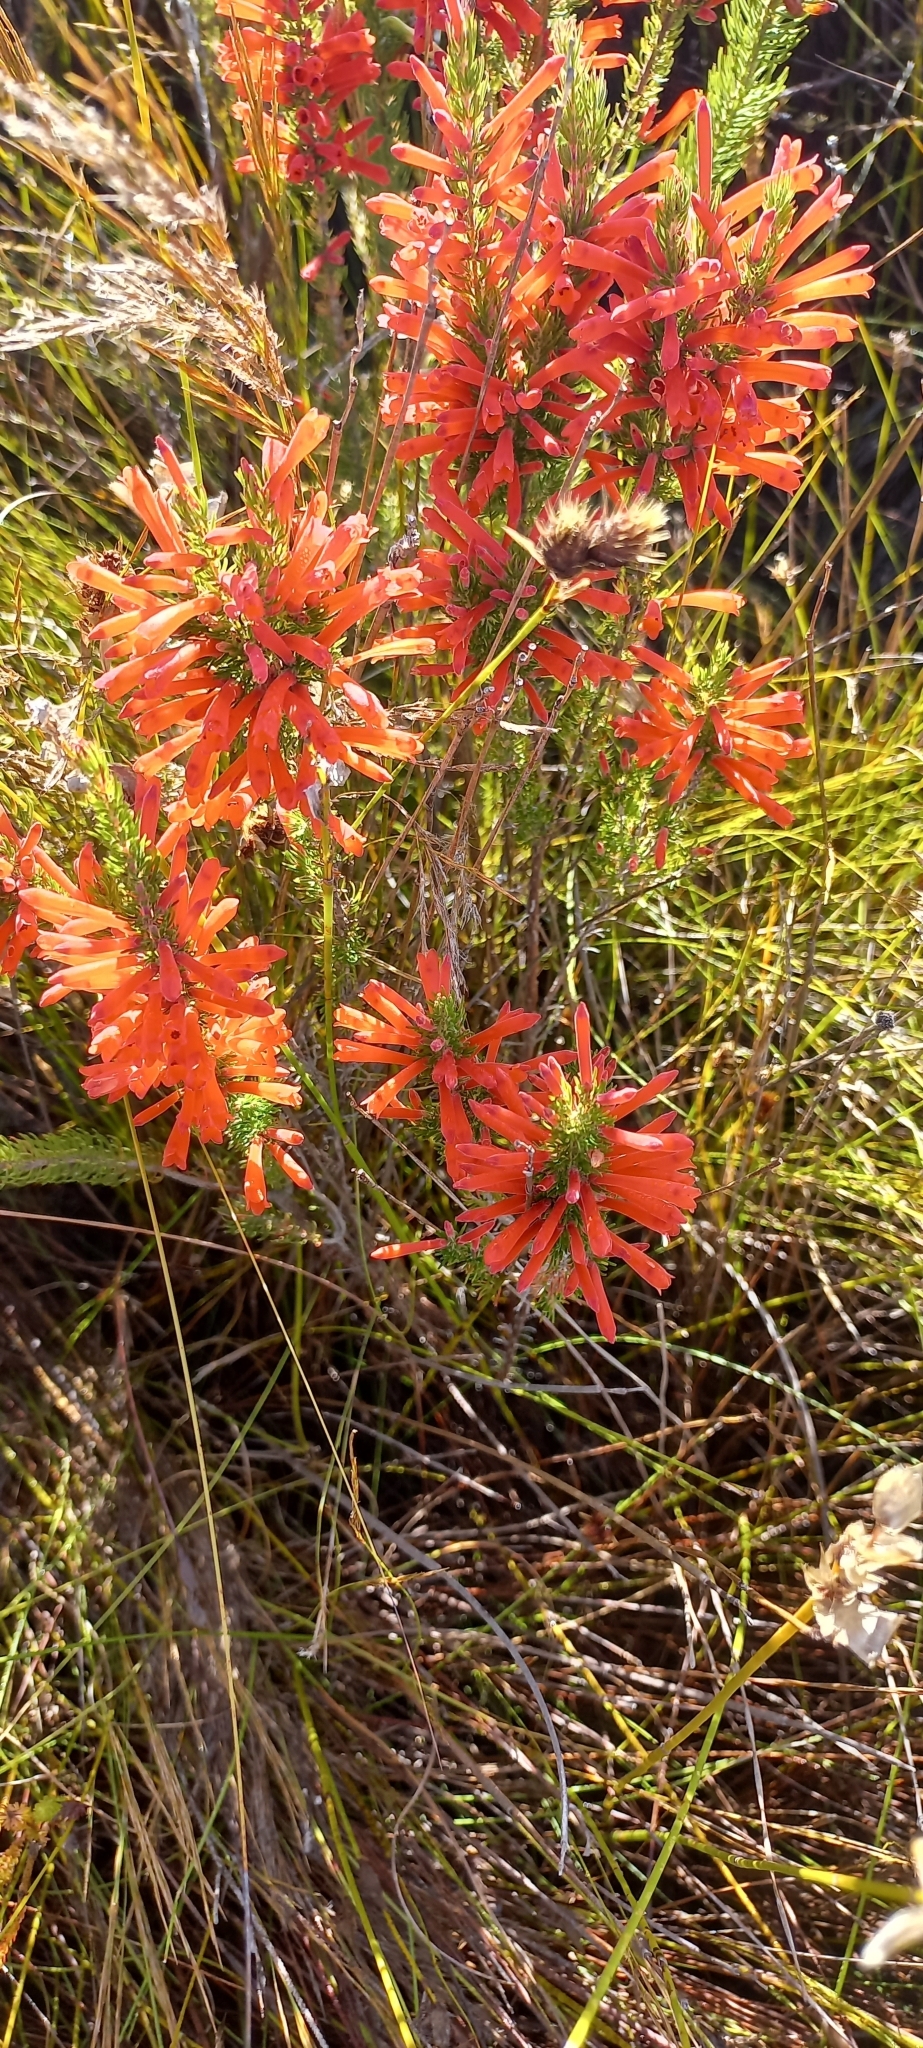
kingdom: Plantae
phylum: Tracheophyta
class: Magnoliopsida
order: Ericales
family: Ericaceae
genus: Erica
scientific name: Erica pillansii
